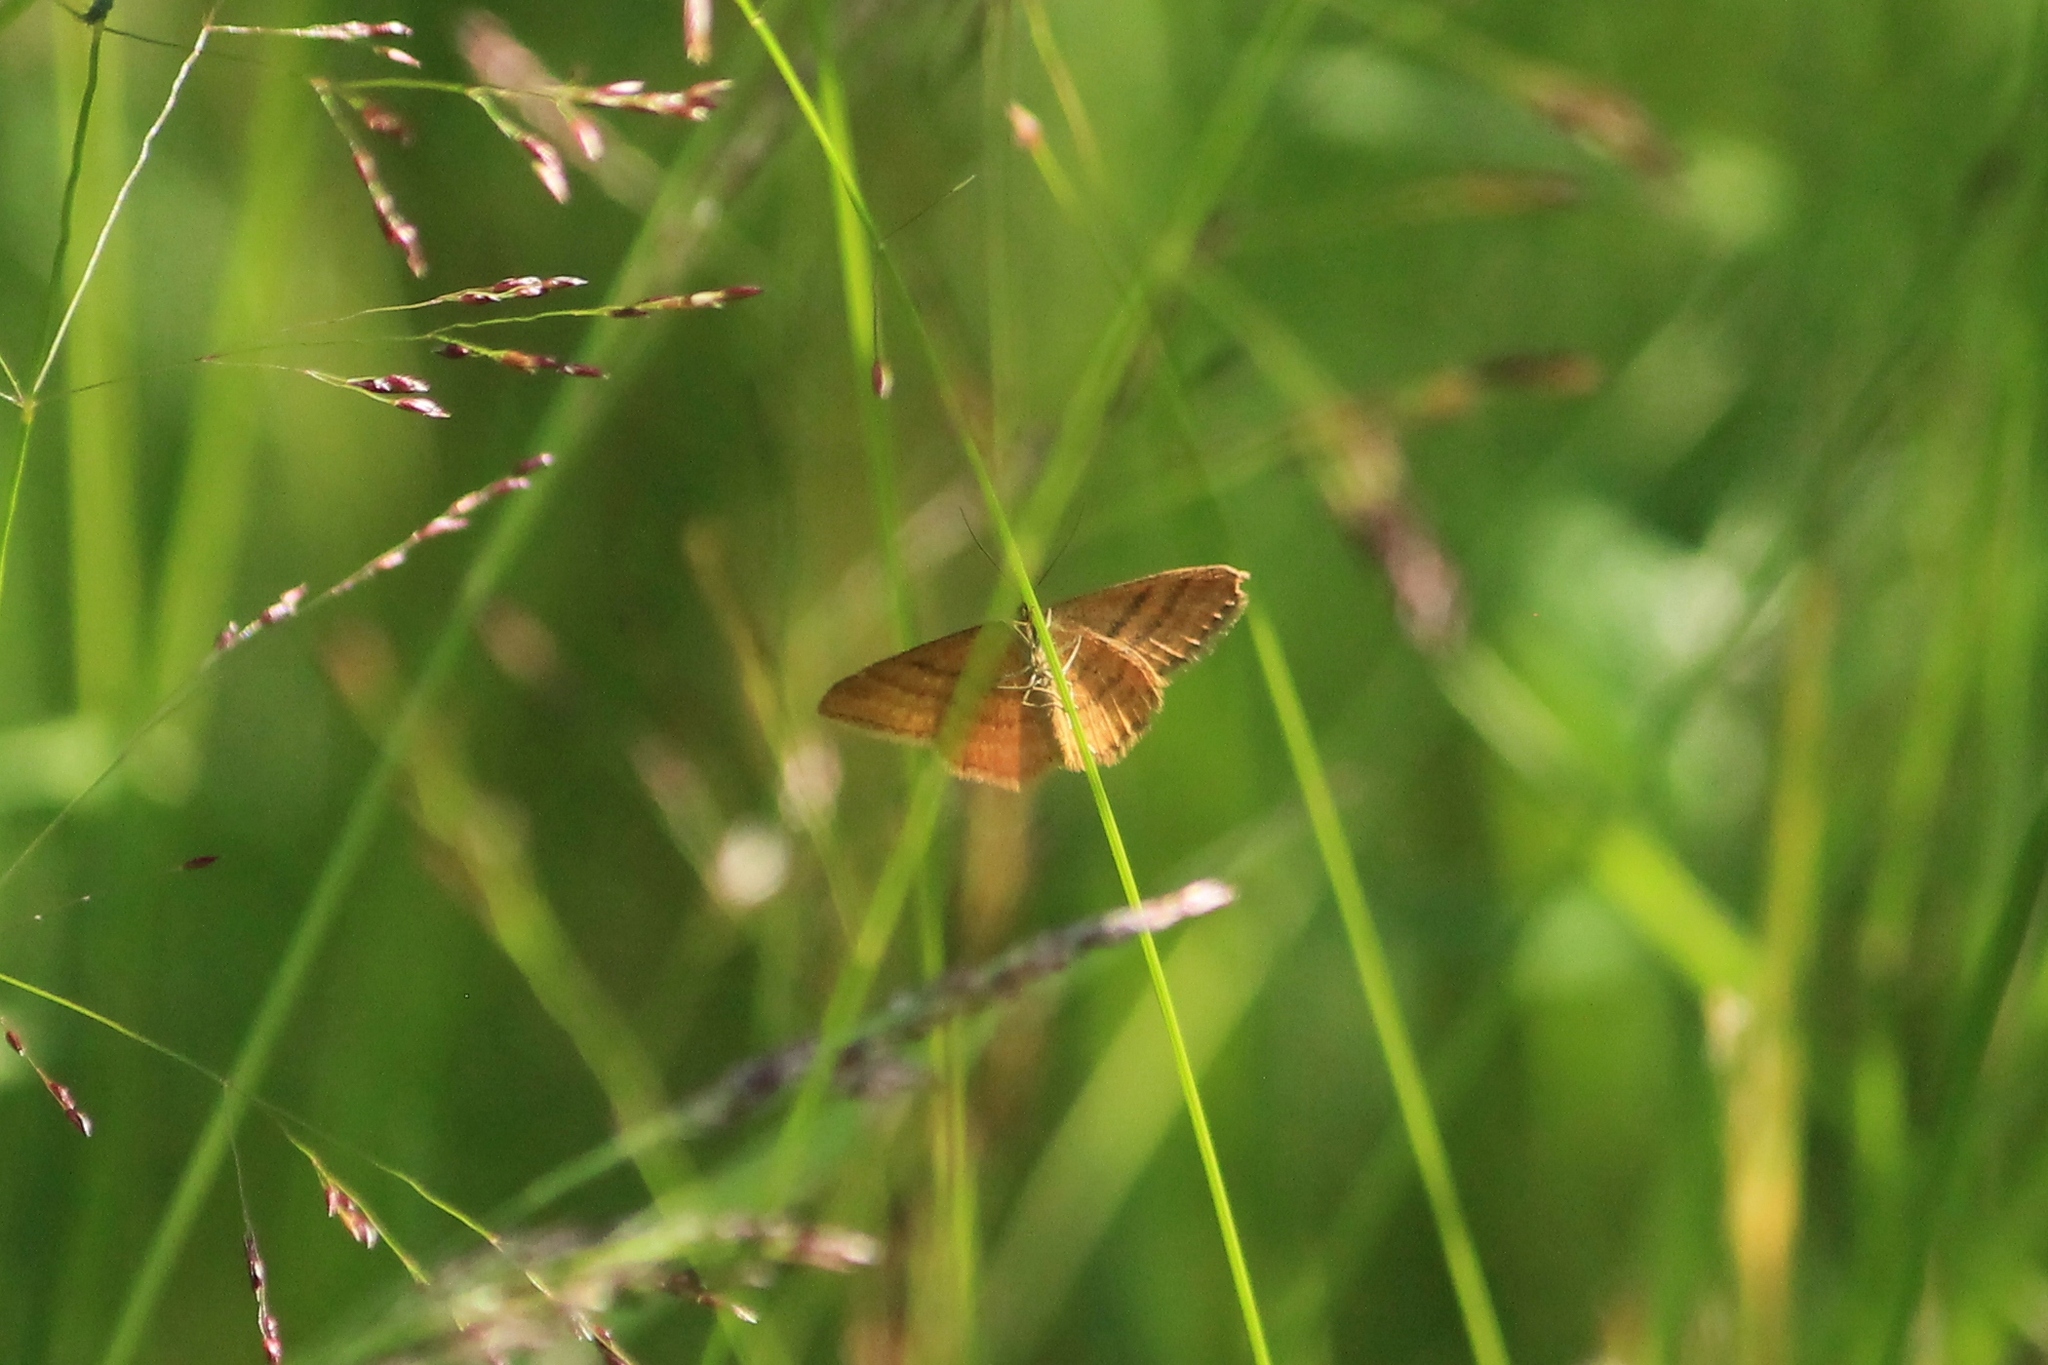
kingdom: Animalia
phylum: Arthropoda
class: Insecta
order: Lepidoptera
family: Geometridae
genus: Idaea
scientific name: Idaea serpentata
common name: Ochraceous wave
